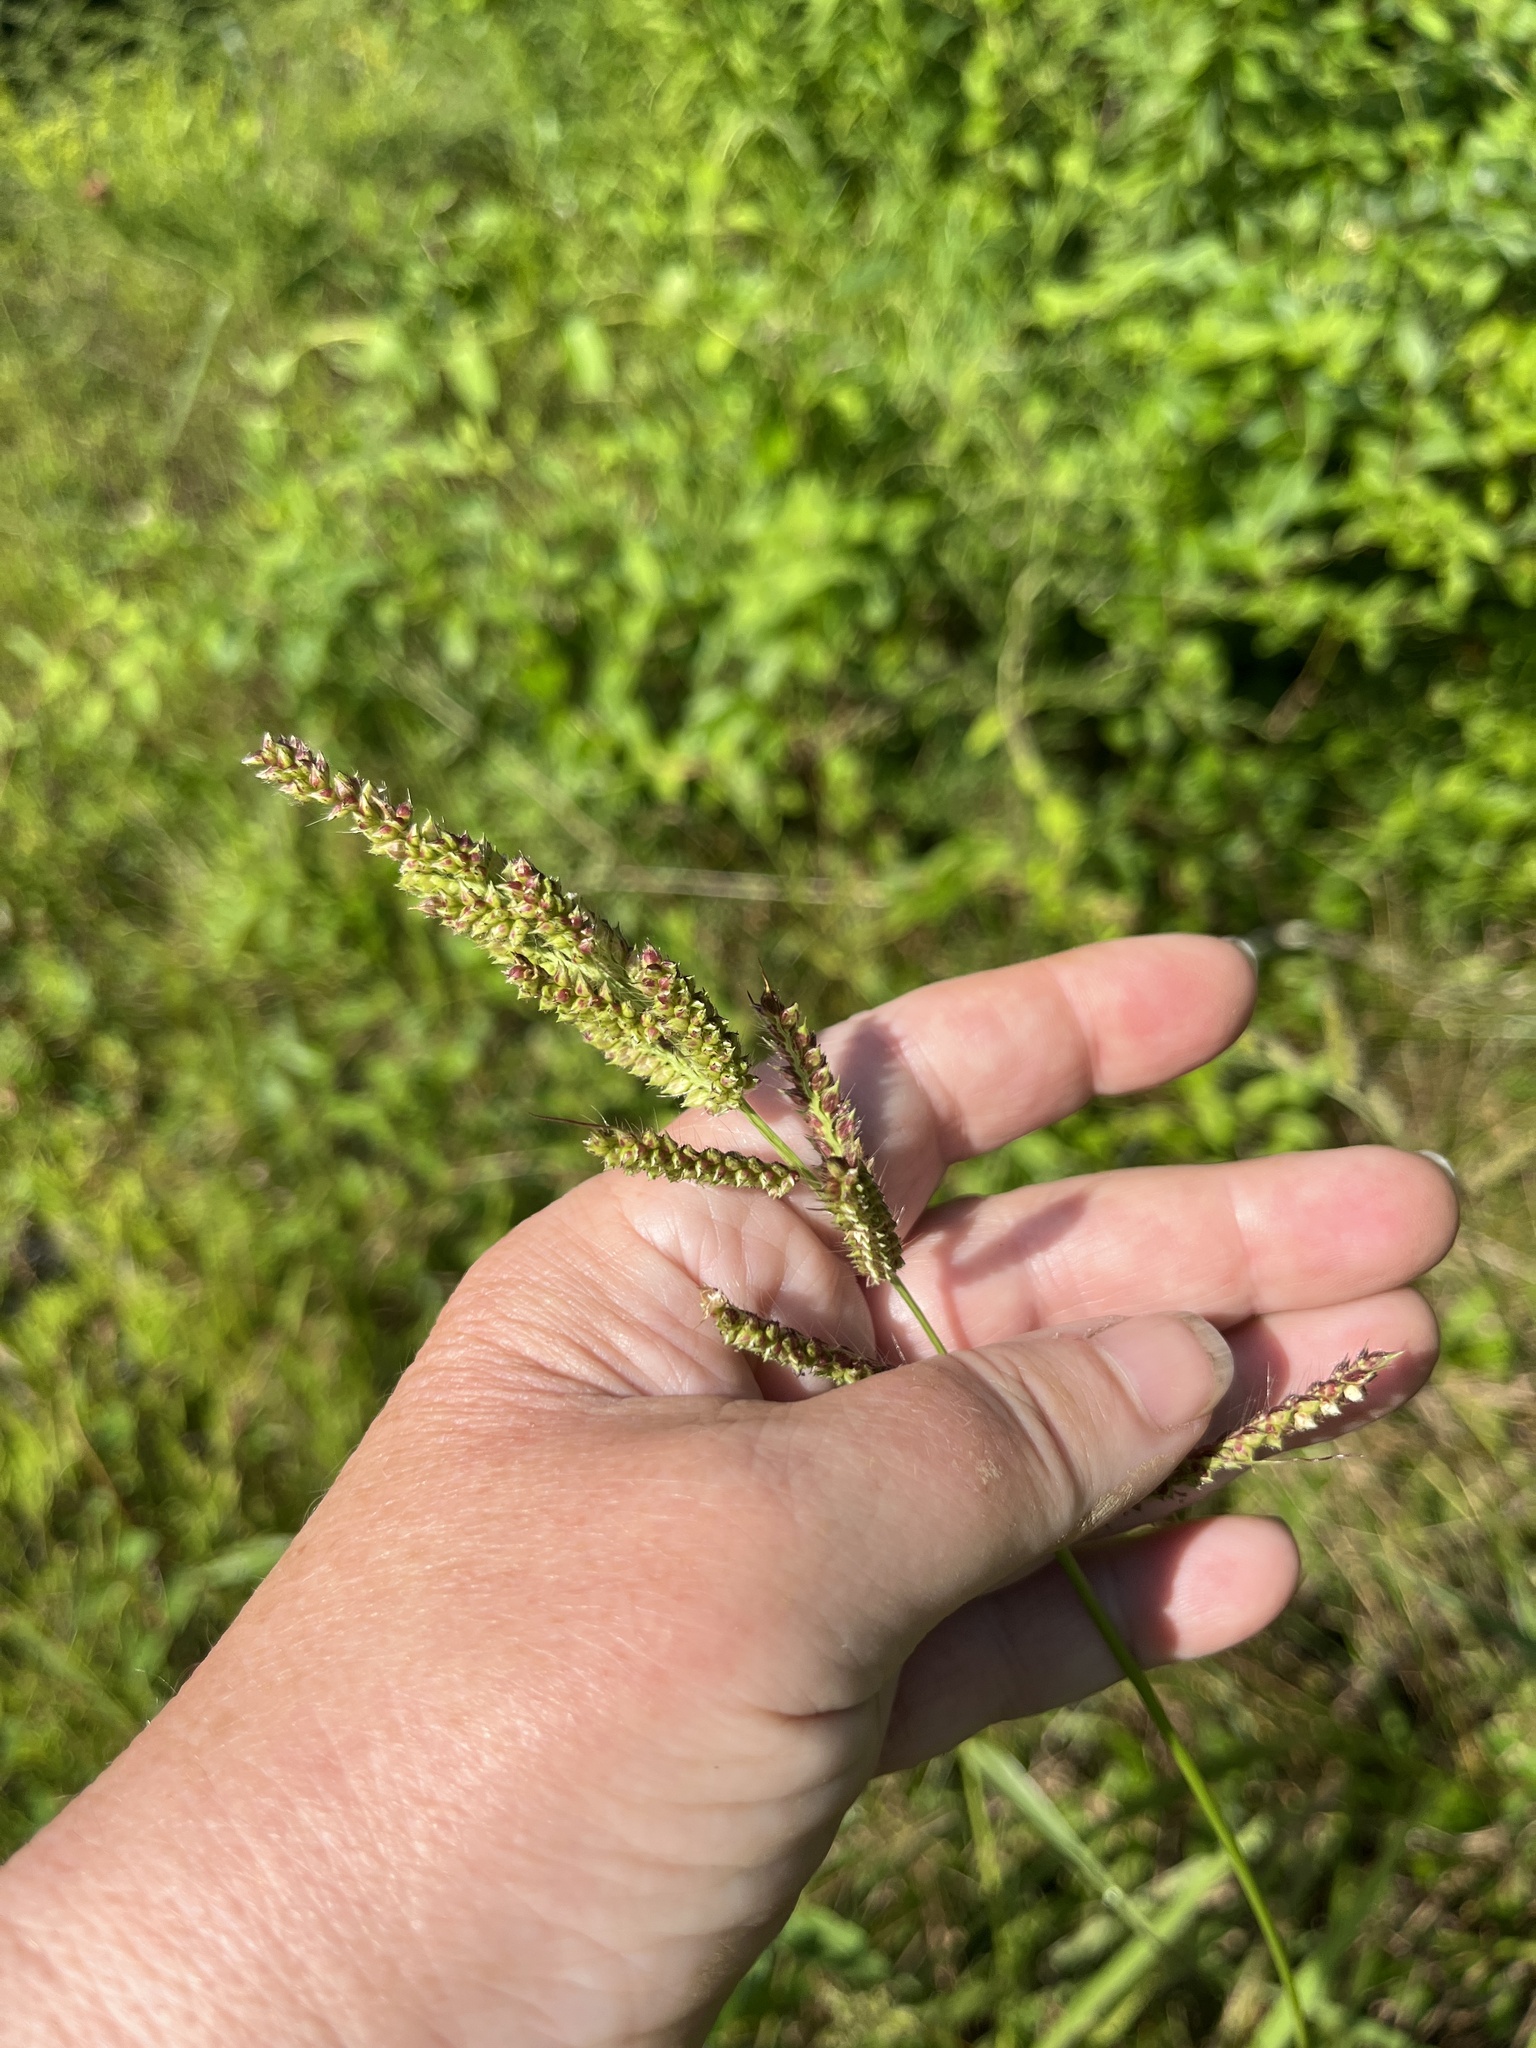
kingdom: Plantae
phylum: Tracheophyta
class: Liliopsida
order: Poales
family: Poaceae
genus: Echinochloa
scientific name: Echinochloa crus-galli
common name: Cockspur
